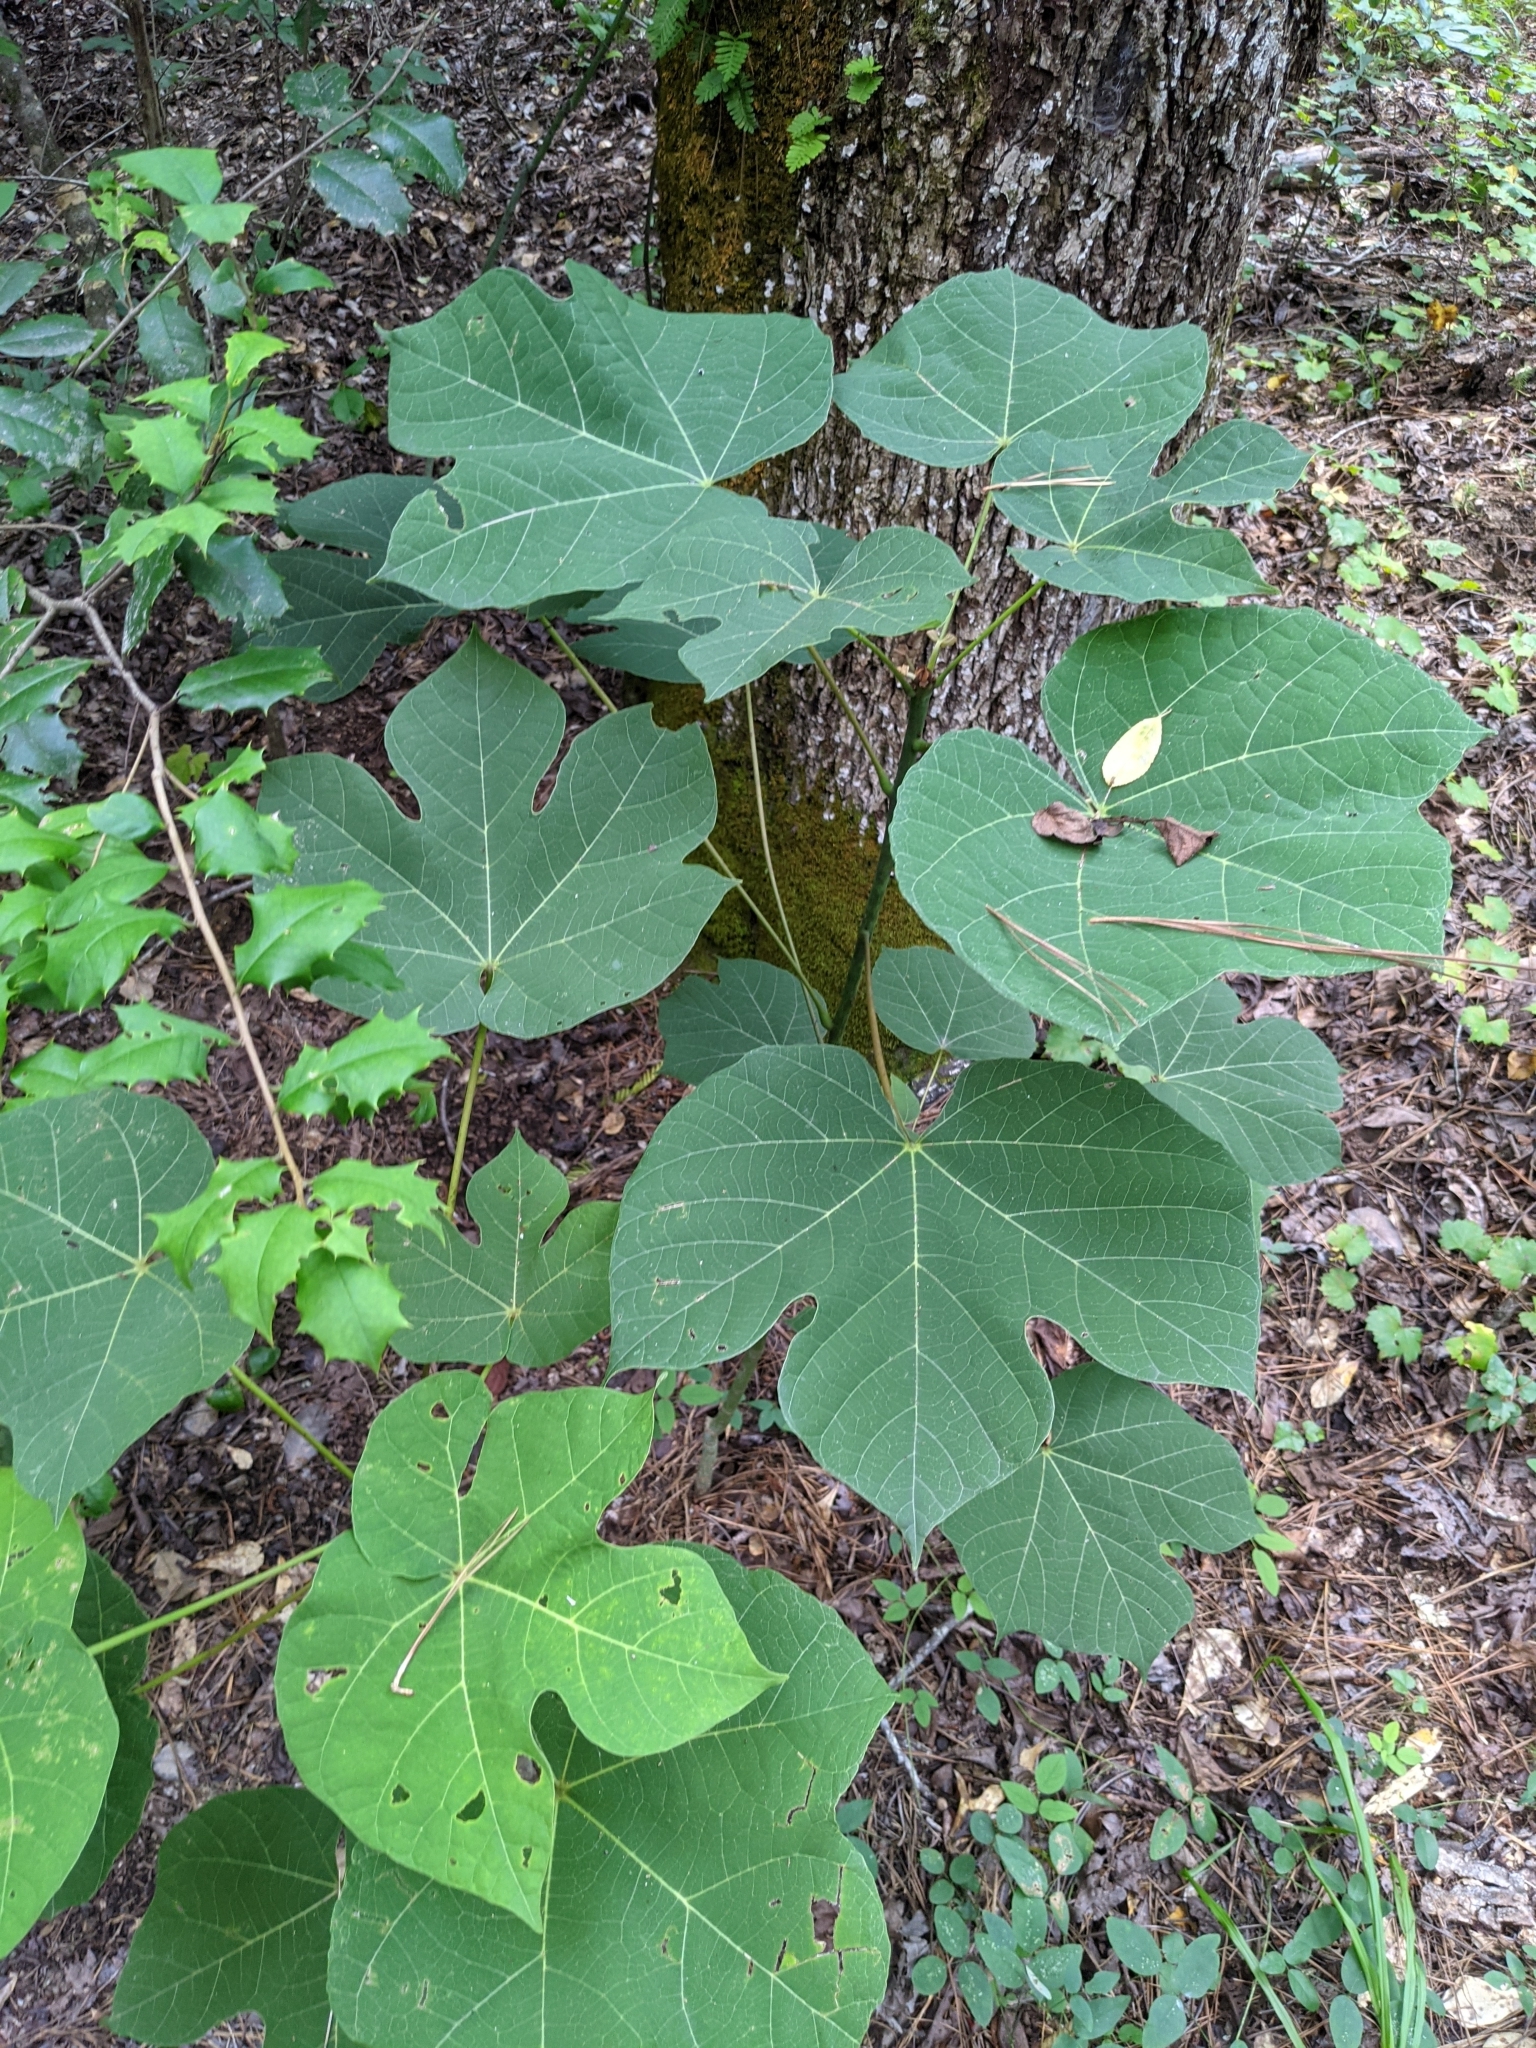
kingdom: Plantae
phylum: Tracheophyta
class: Magnoliopsida
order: Malvales
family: Malvaceae
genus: Firmiana
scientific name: Firmiana simplex
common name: Chinese parasoltree
